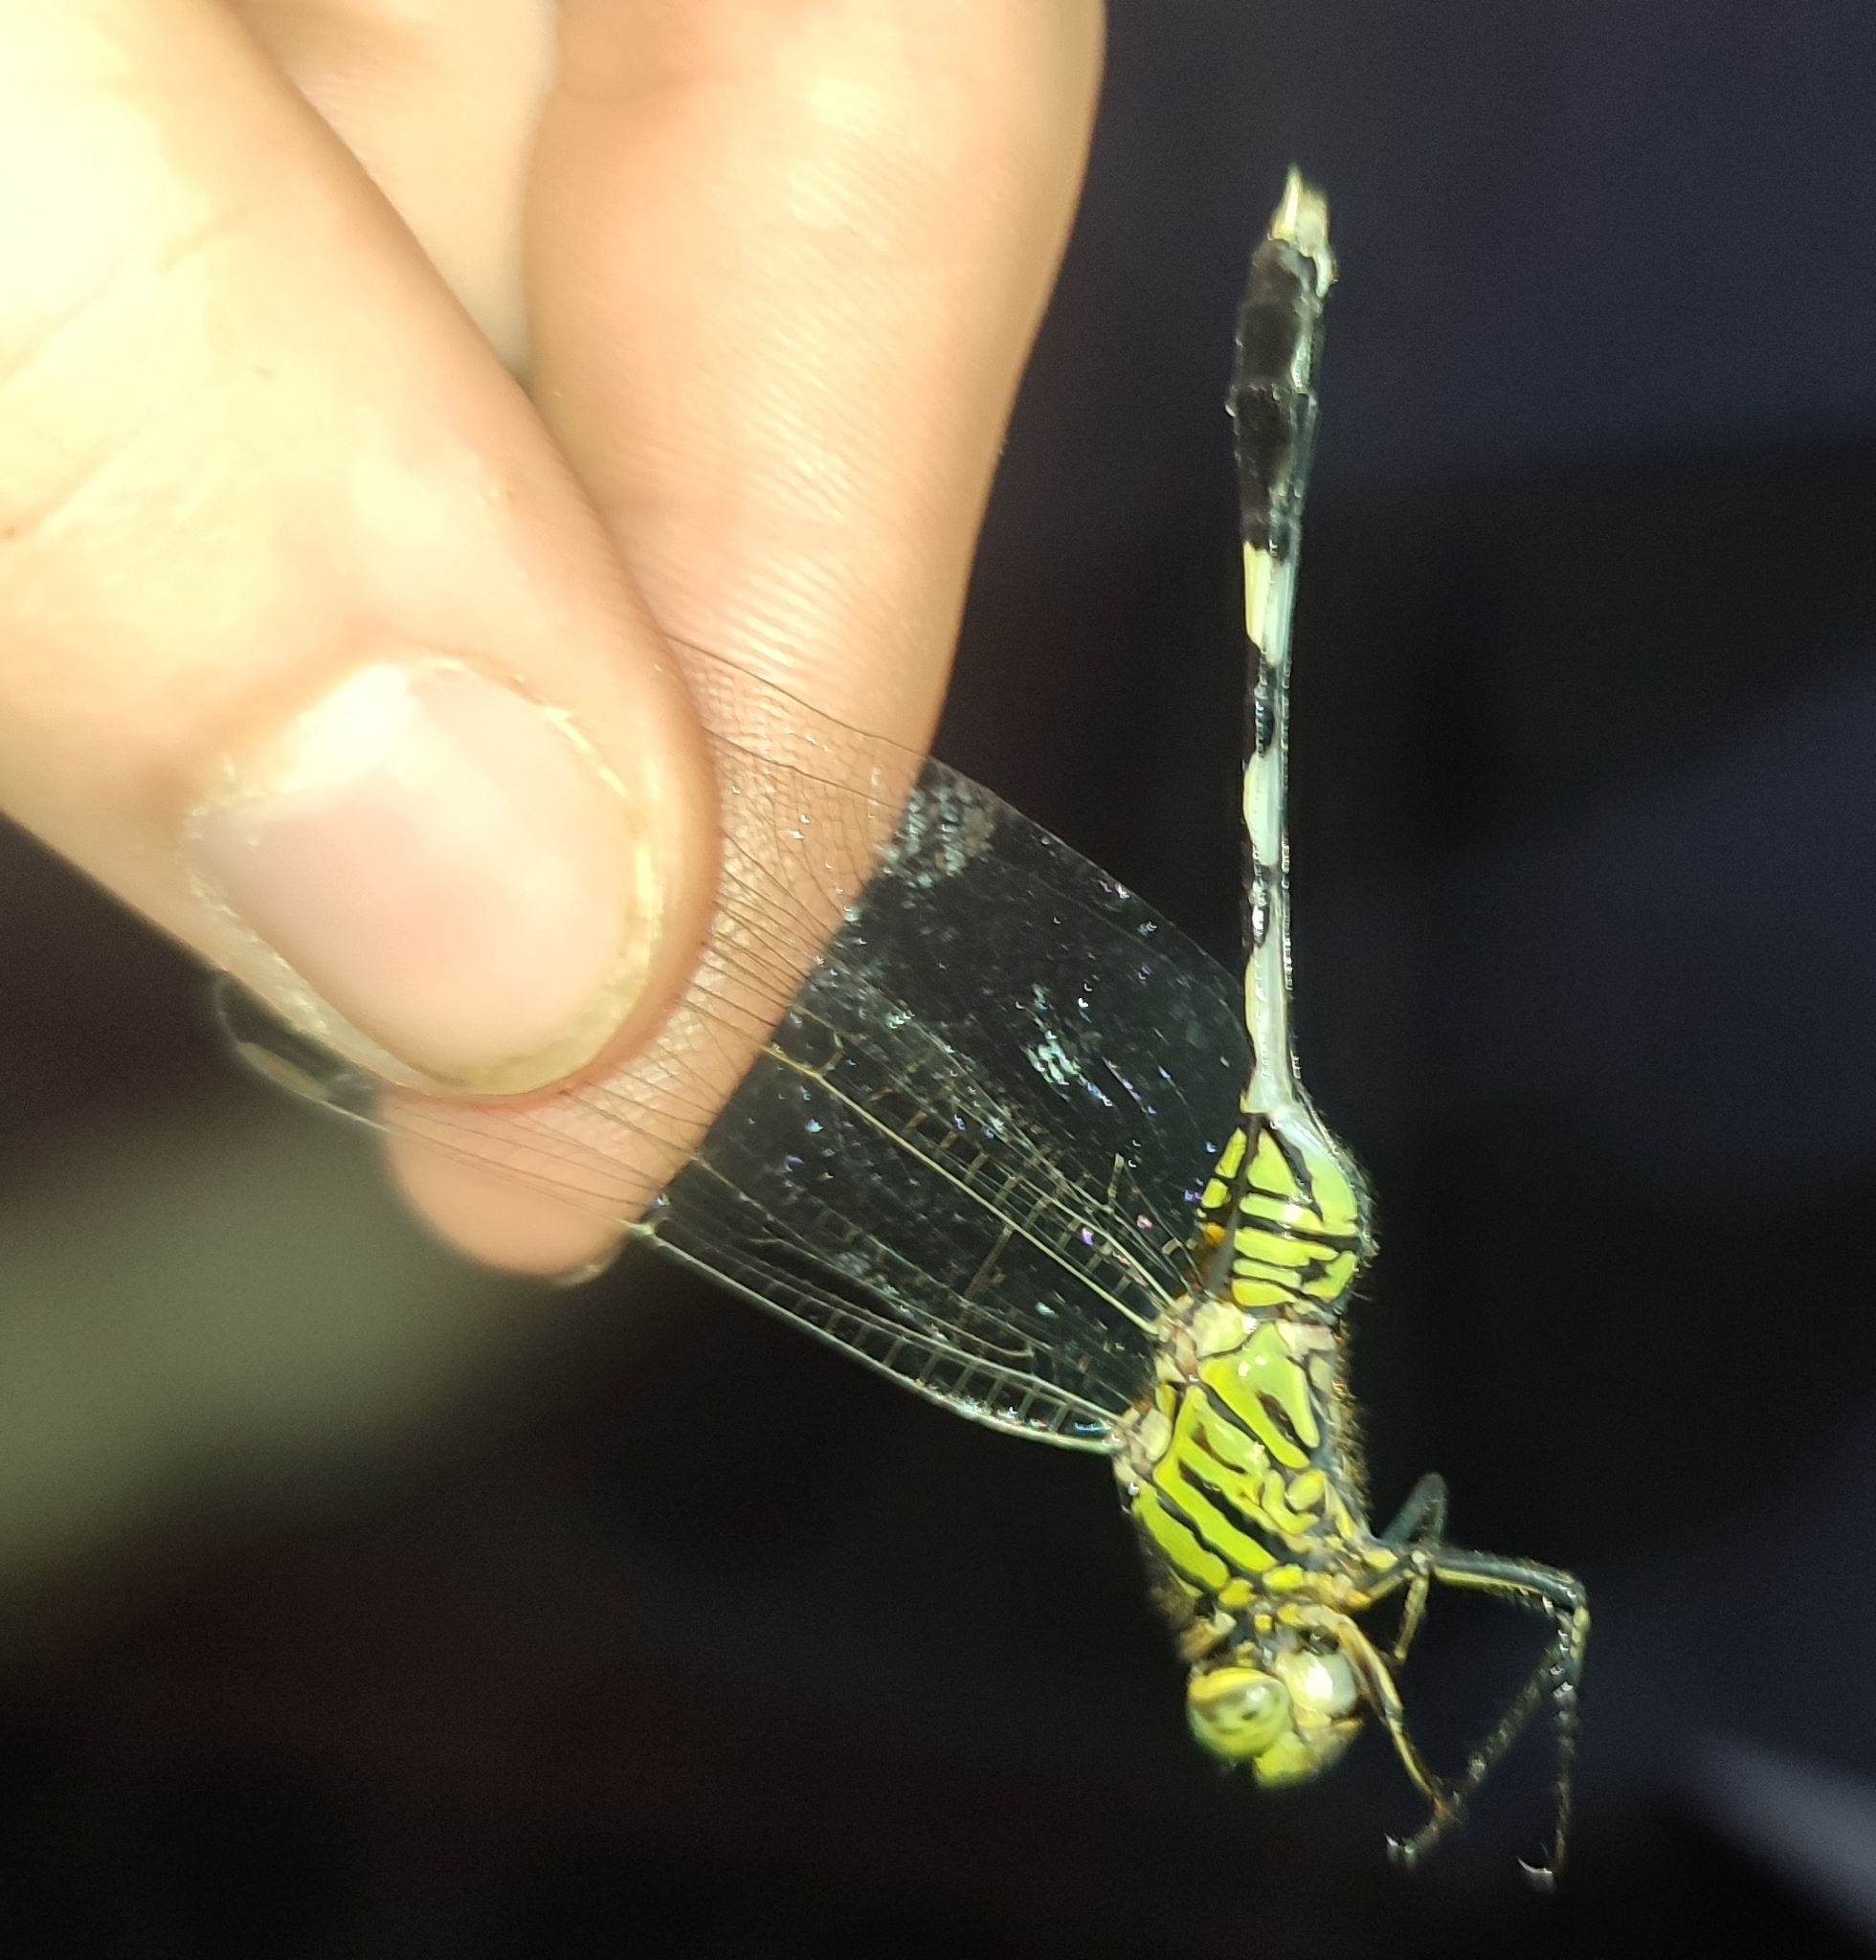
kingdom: Animalia
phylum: Arthropoda
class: Insecta
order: Odonata
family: Libellulidae
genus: Orthetrum
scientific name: Orthetrum sabina
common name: Slender skimmer
